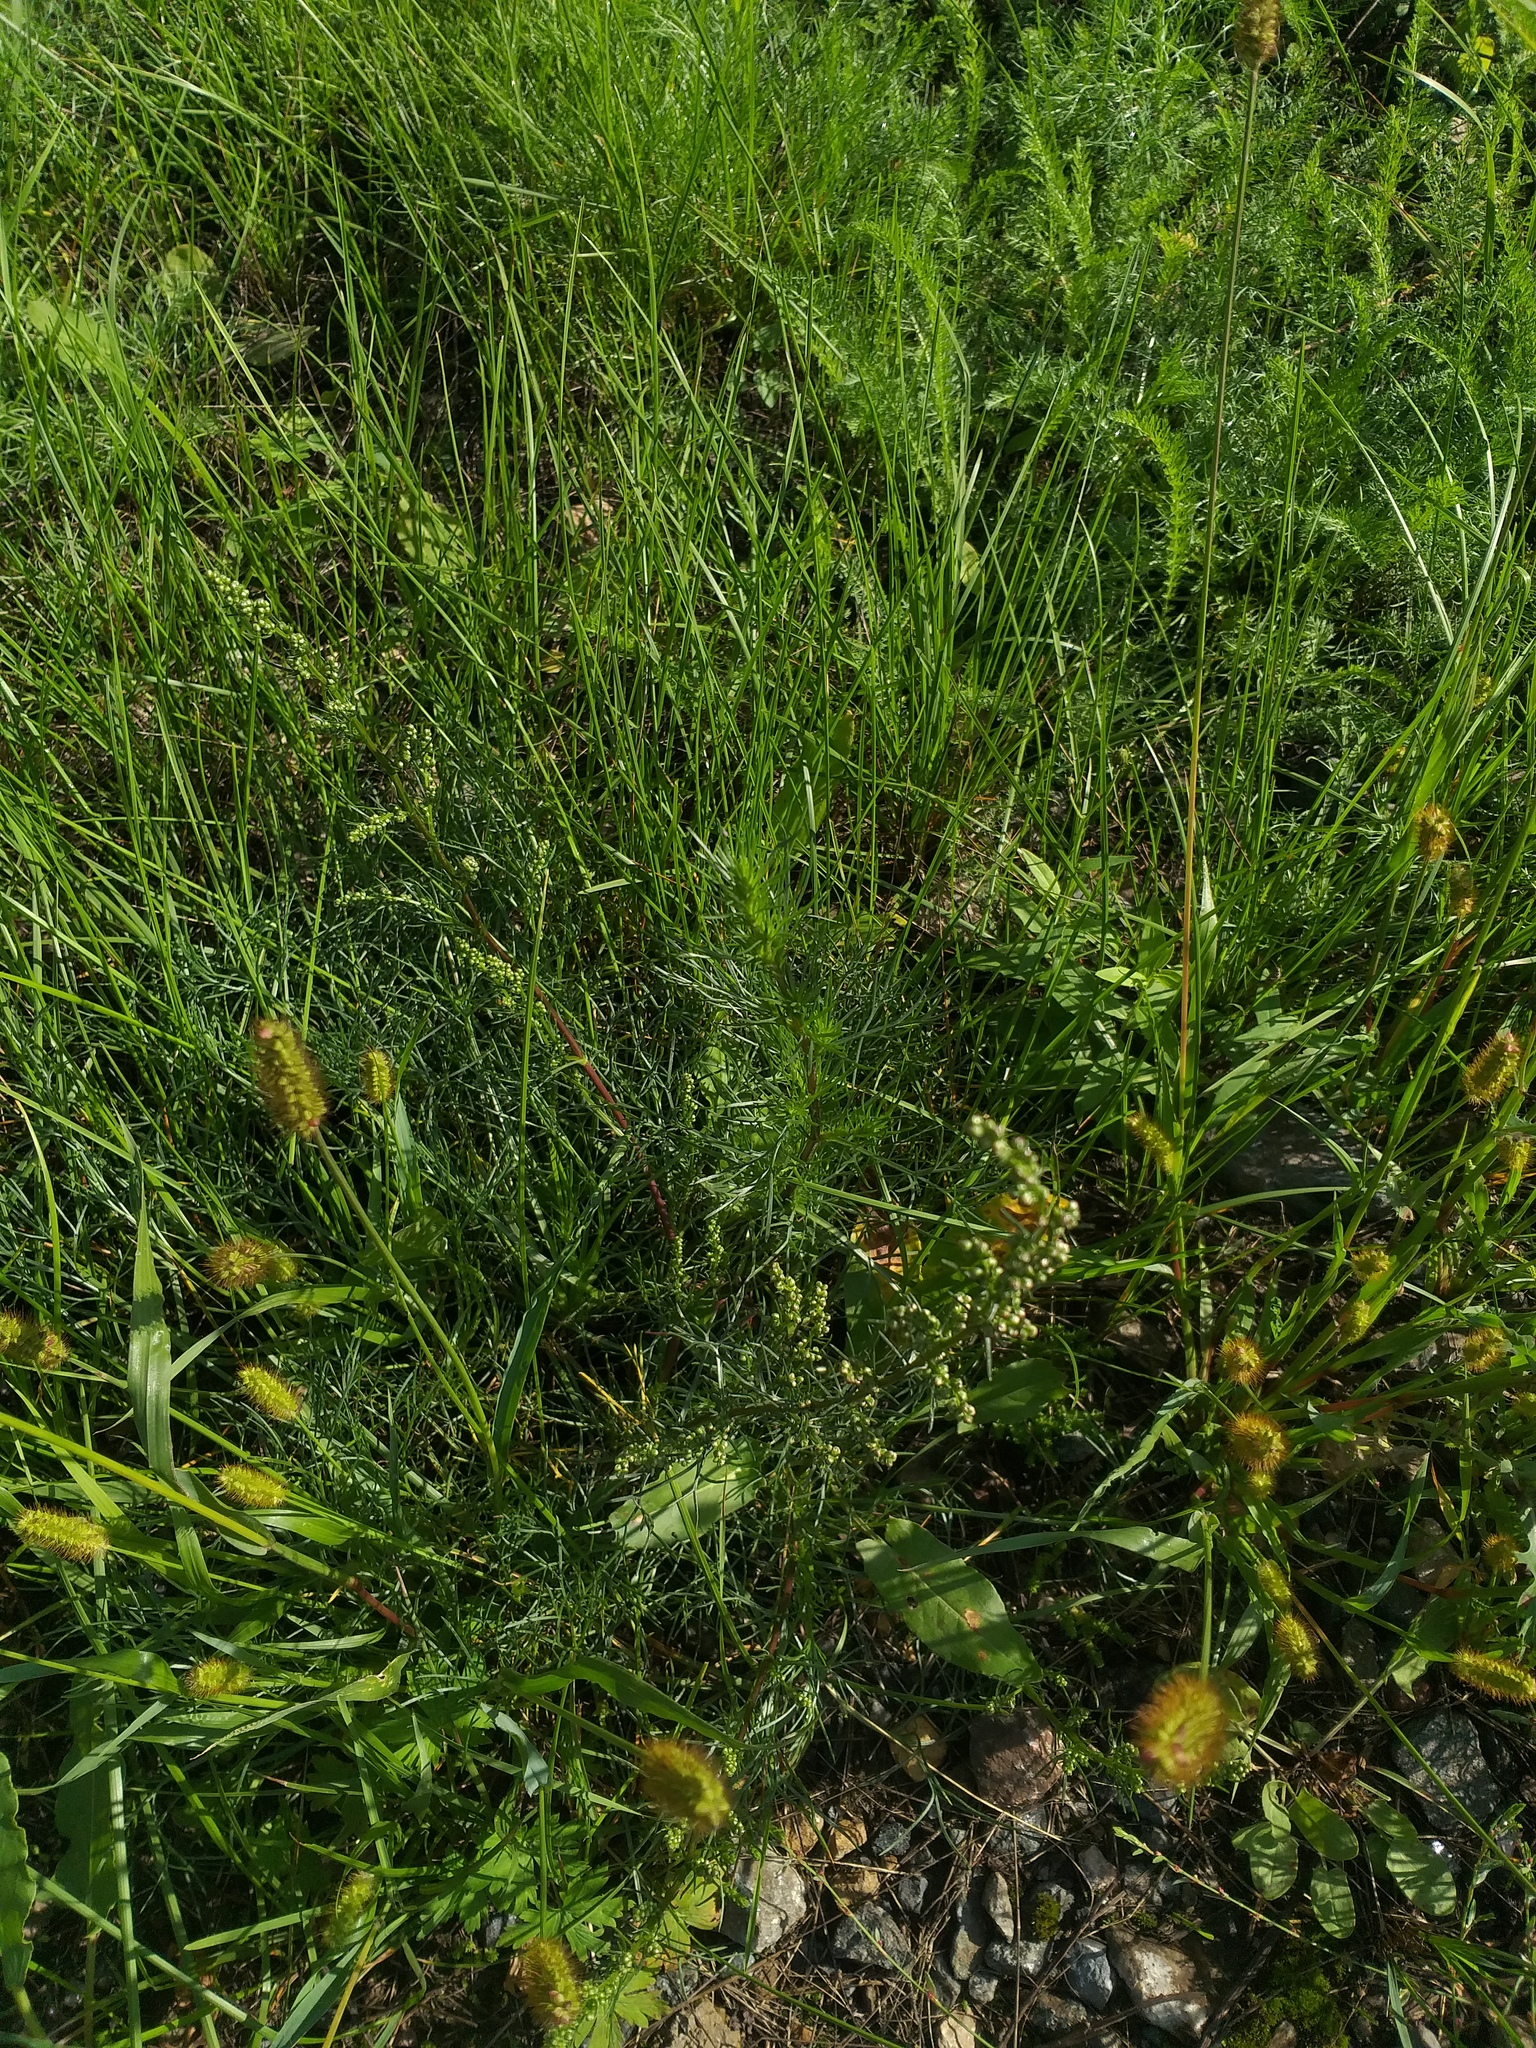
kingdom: Plantae
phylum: Tracheophyta
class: Magnoliopsida
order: Asterales
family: Asteraceae
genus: Artemisia
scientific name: Artemisia campestris
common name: Field wormwood
